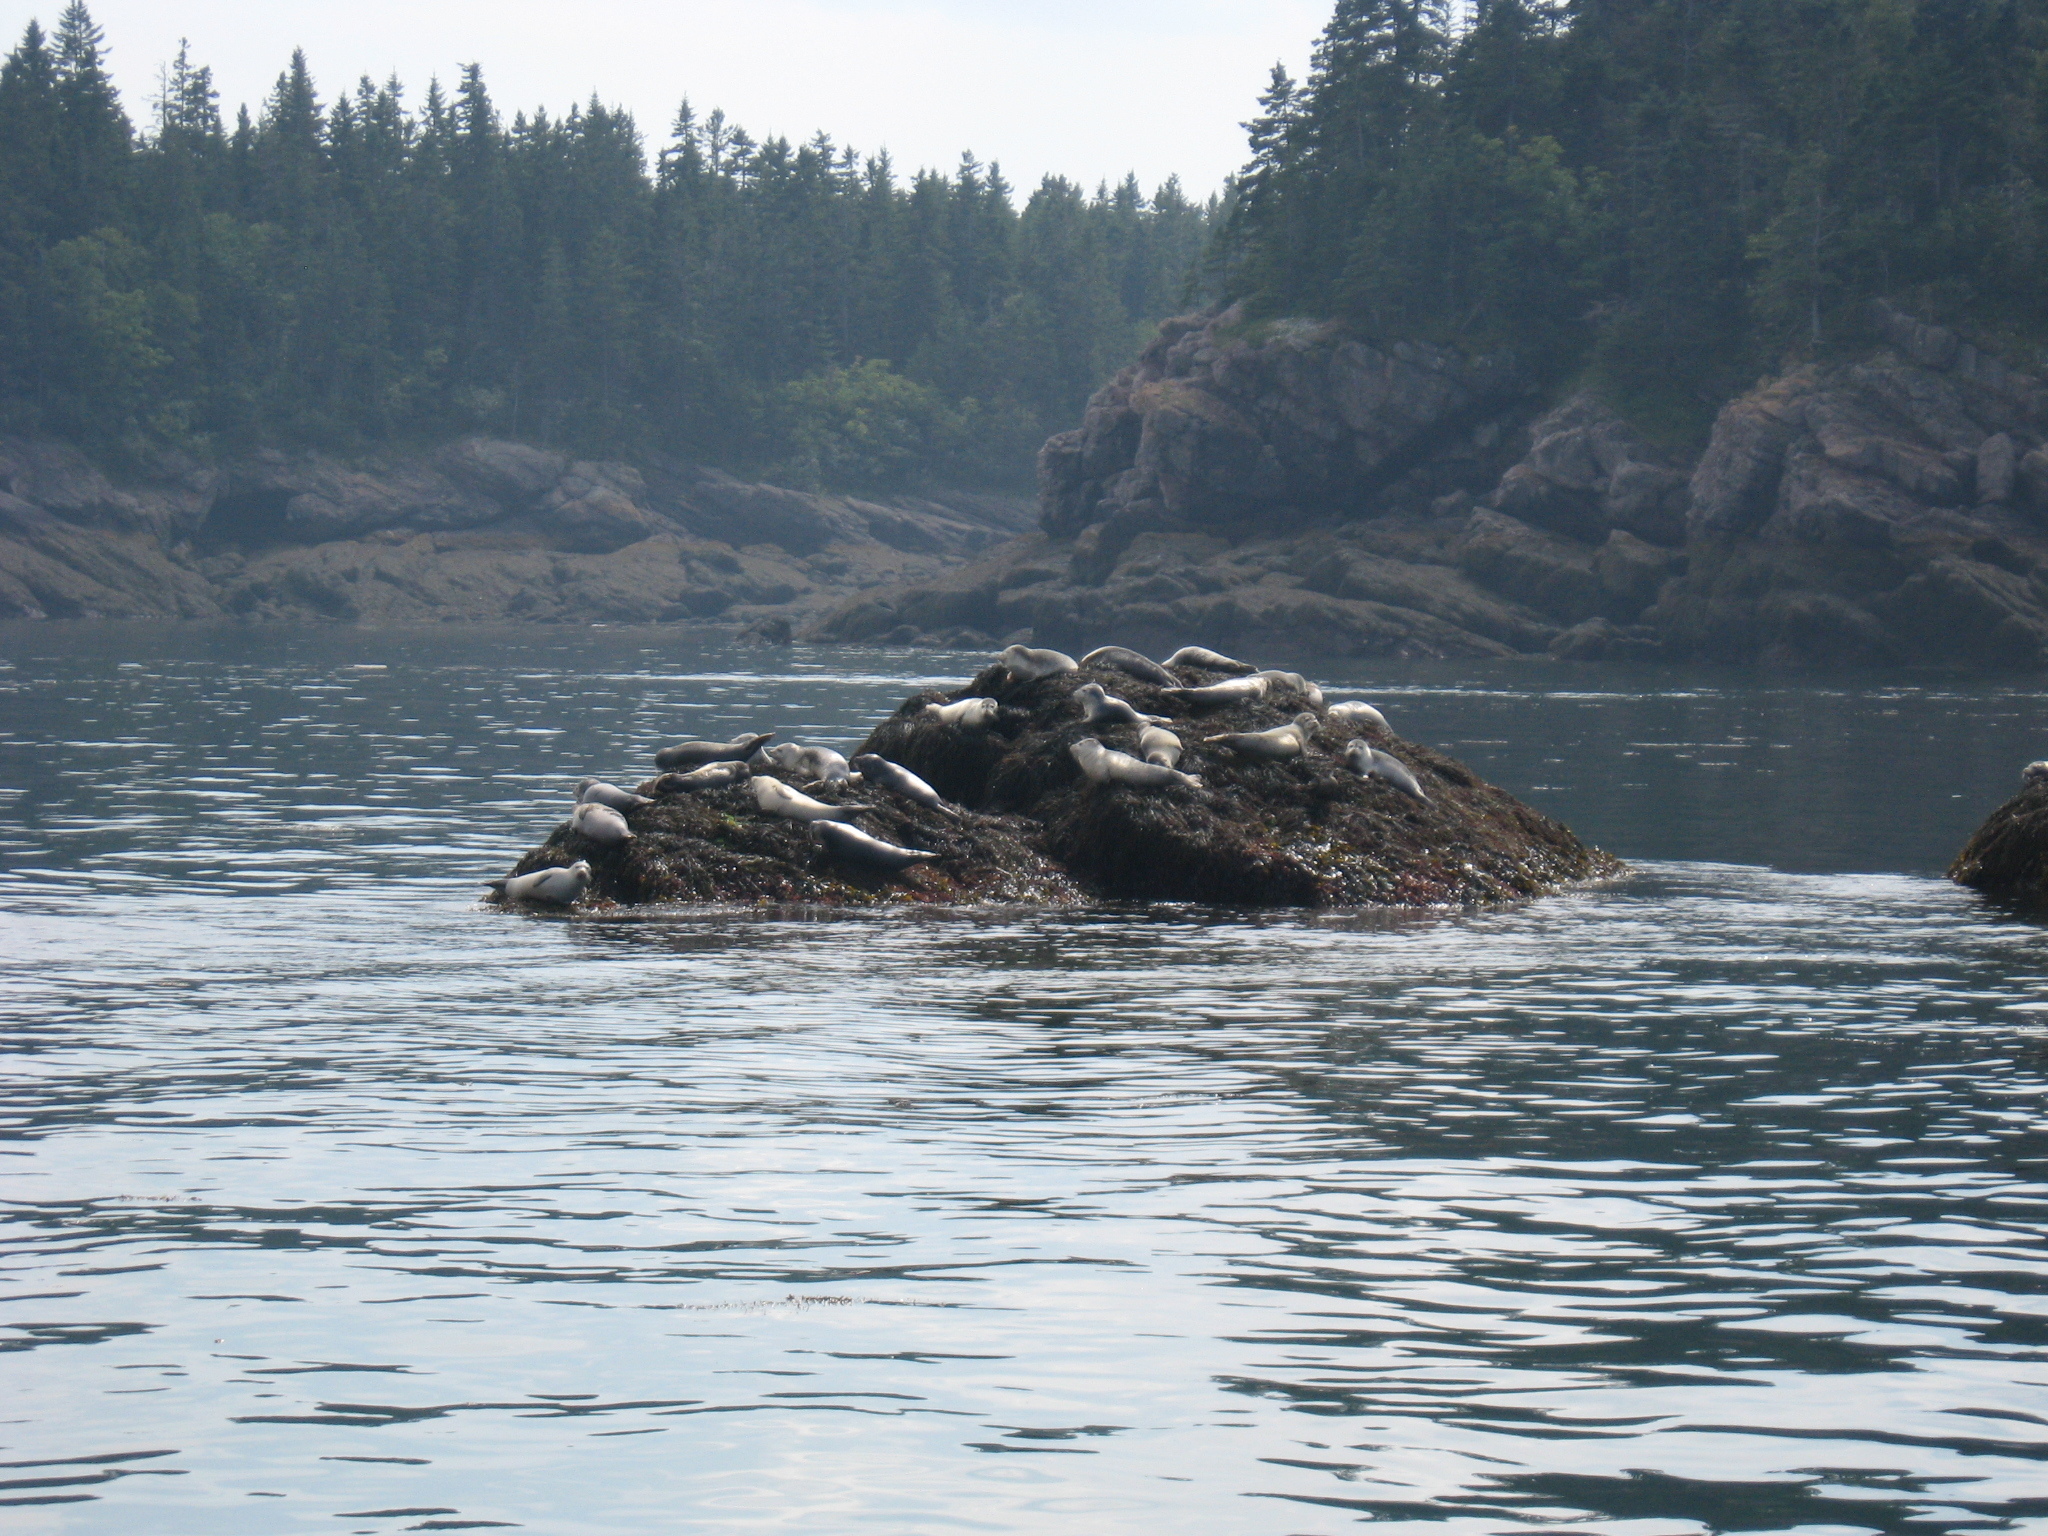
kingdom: Animalia
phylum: Chordata
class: Mammalia
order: Carnivora
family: Phocidae
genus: Phoca
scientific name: Phoca vitulina
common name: Harbor seal
